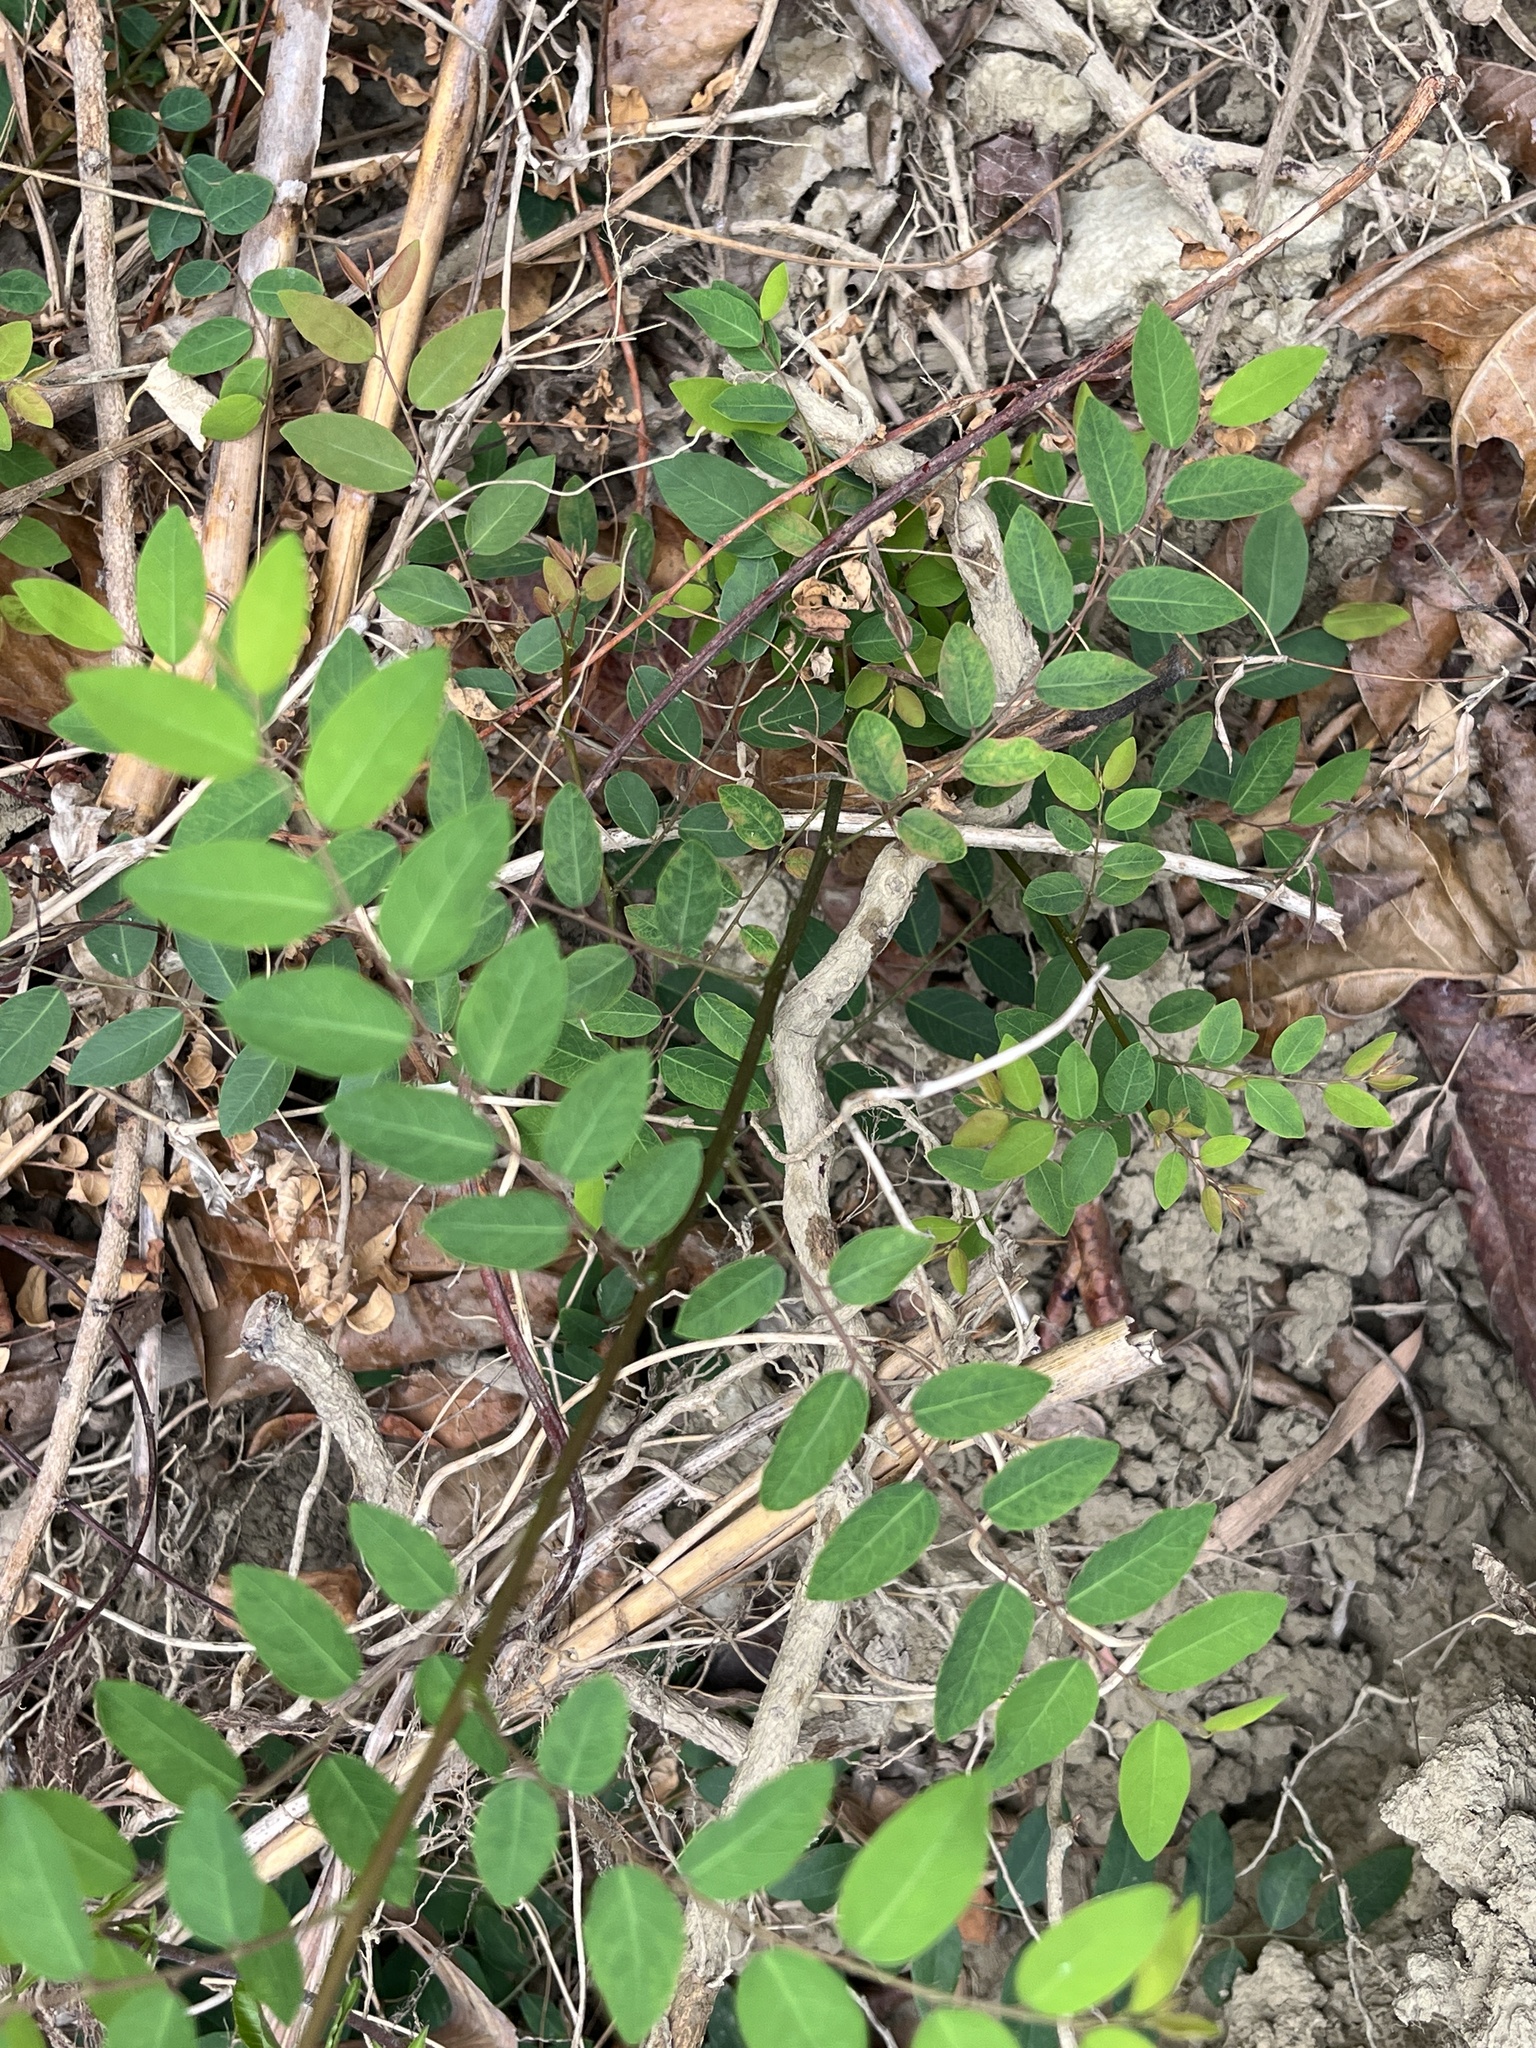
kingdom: Plantae
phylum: Tracheophyta
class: Magnoliopsida
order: Malpighiales
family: Phyllanthaceae
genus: Phyllanthus
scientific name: Phyllanthus reticulatus
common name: Potato bush
